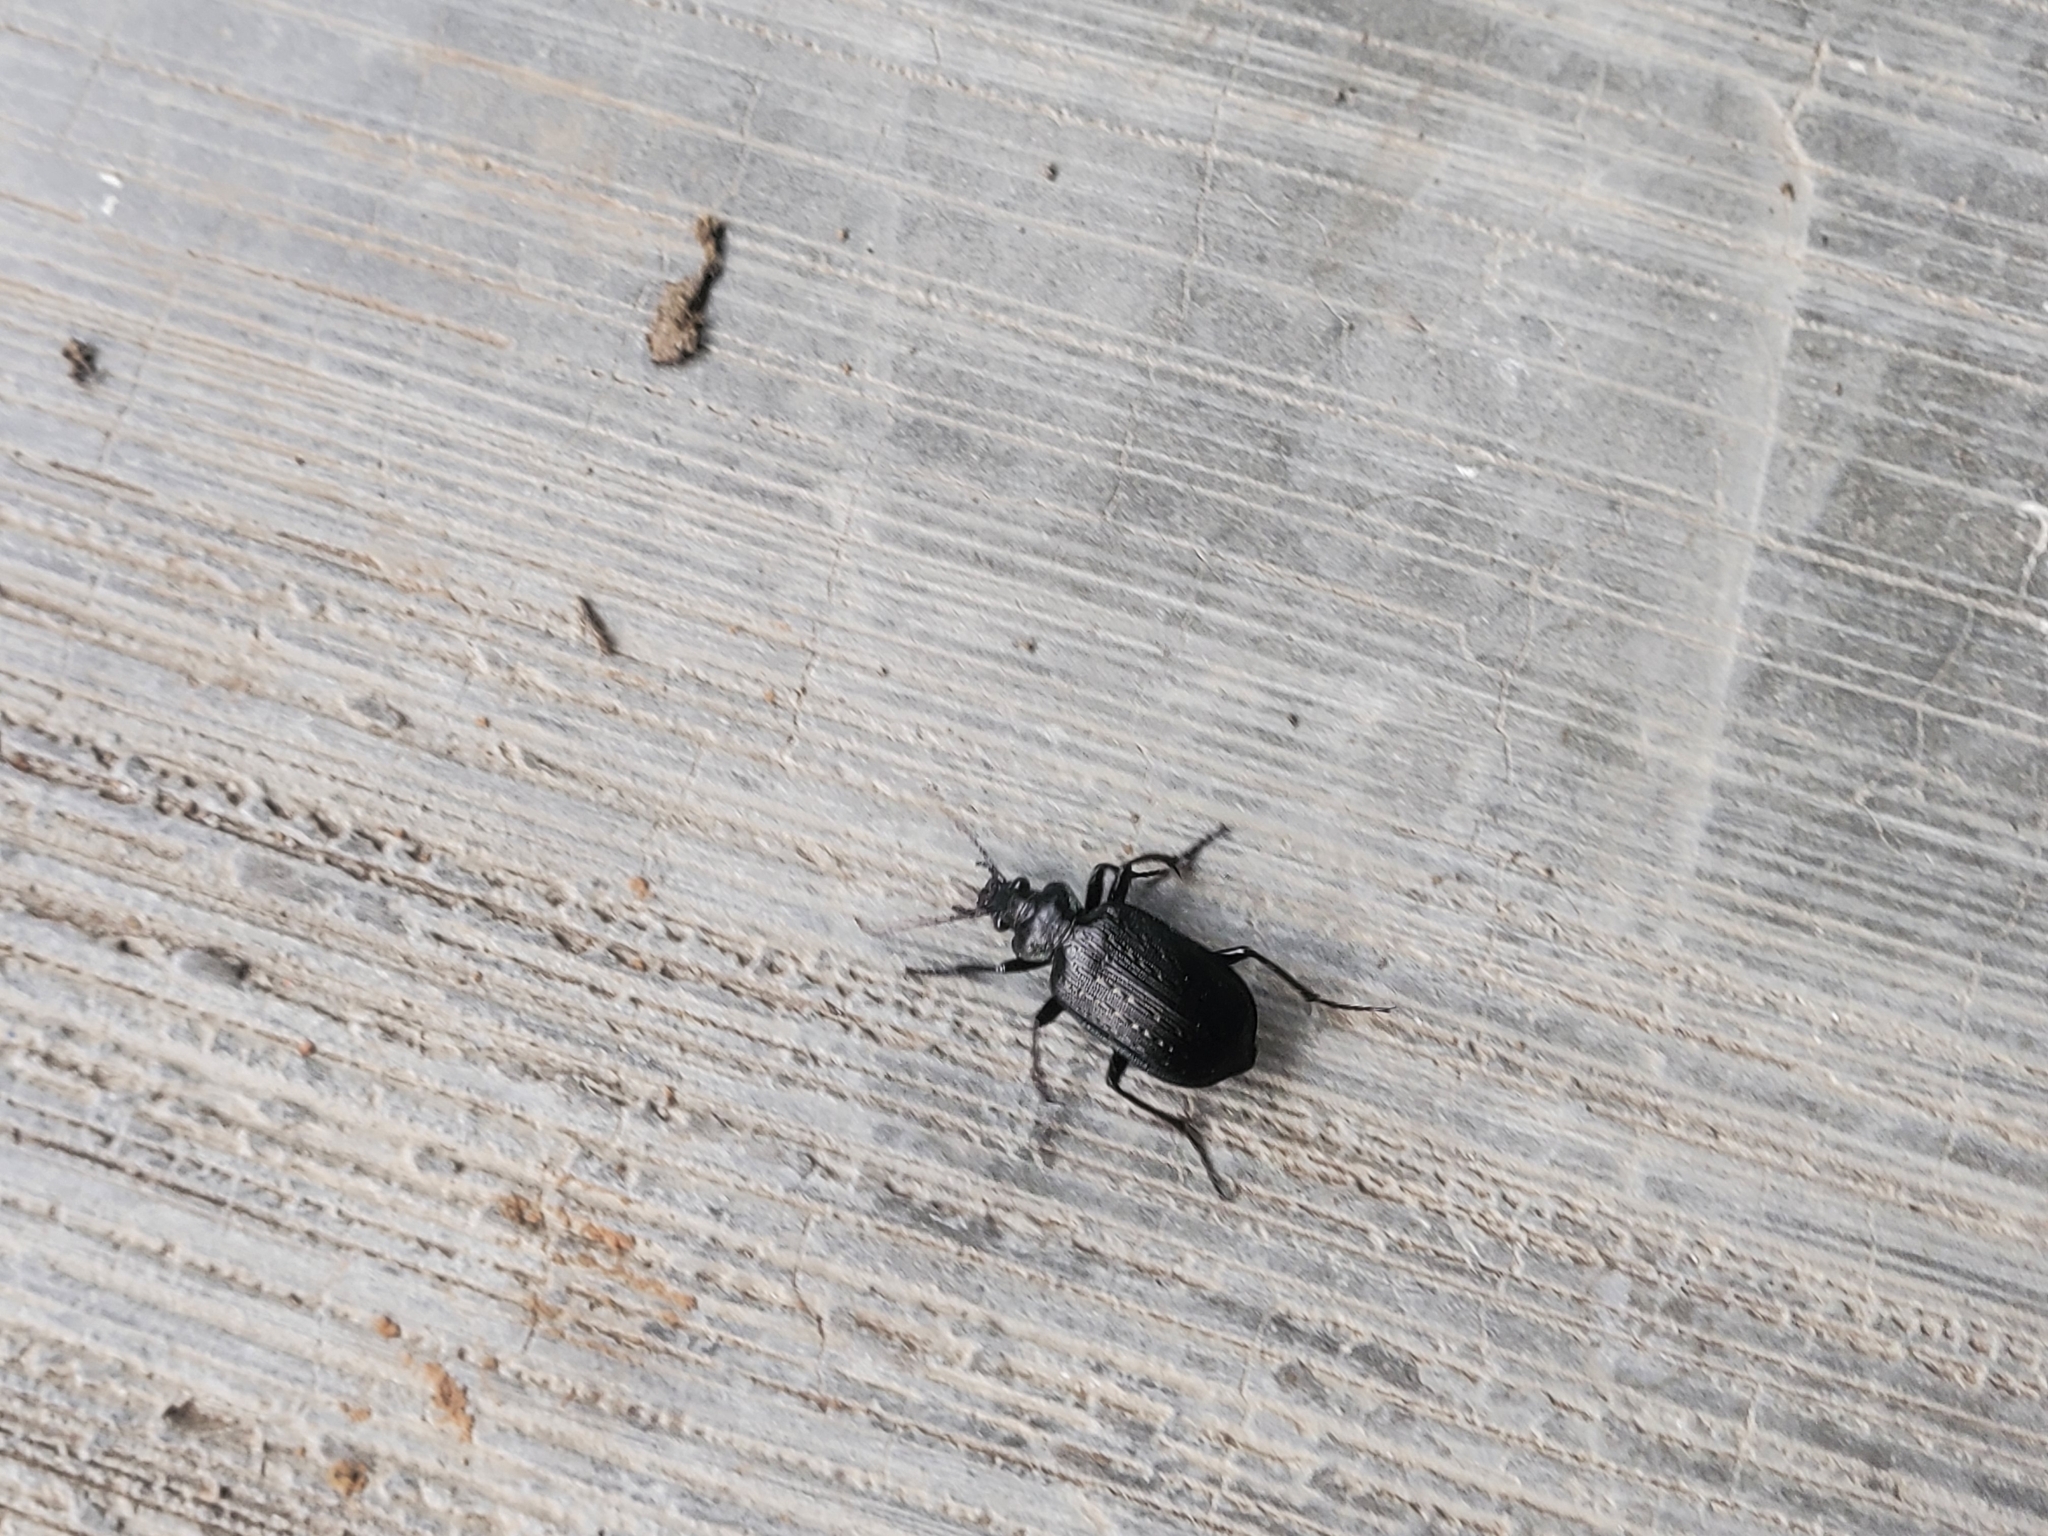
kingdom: Animalia
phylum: Arthropoda
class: Insecta
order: Coleoptera
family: Carabidae
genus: Calosoma
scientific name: Calosoma sayi
